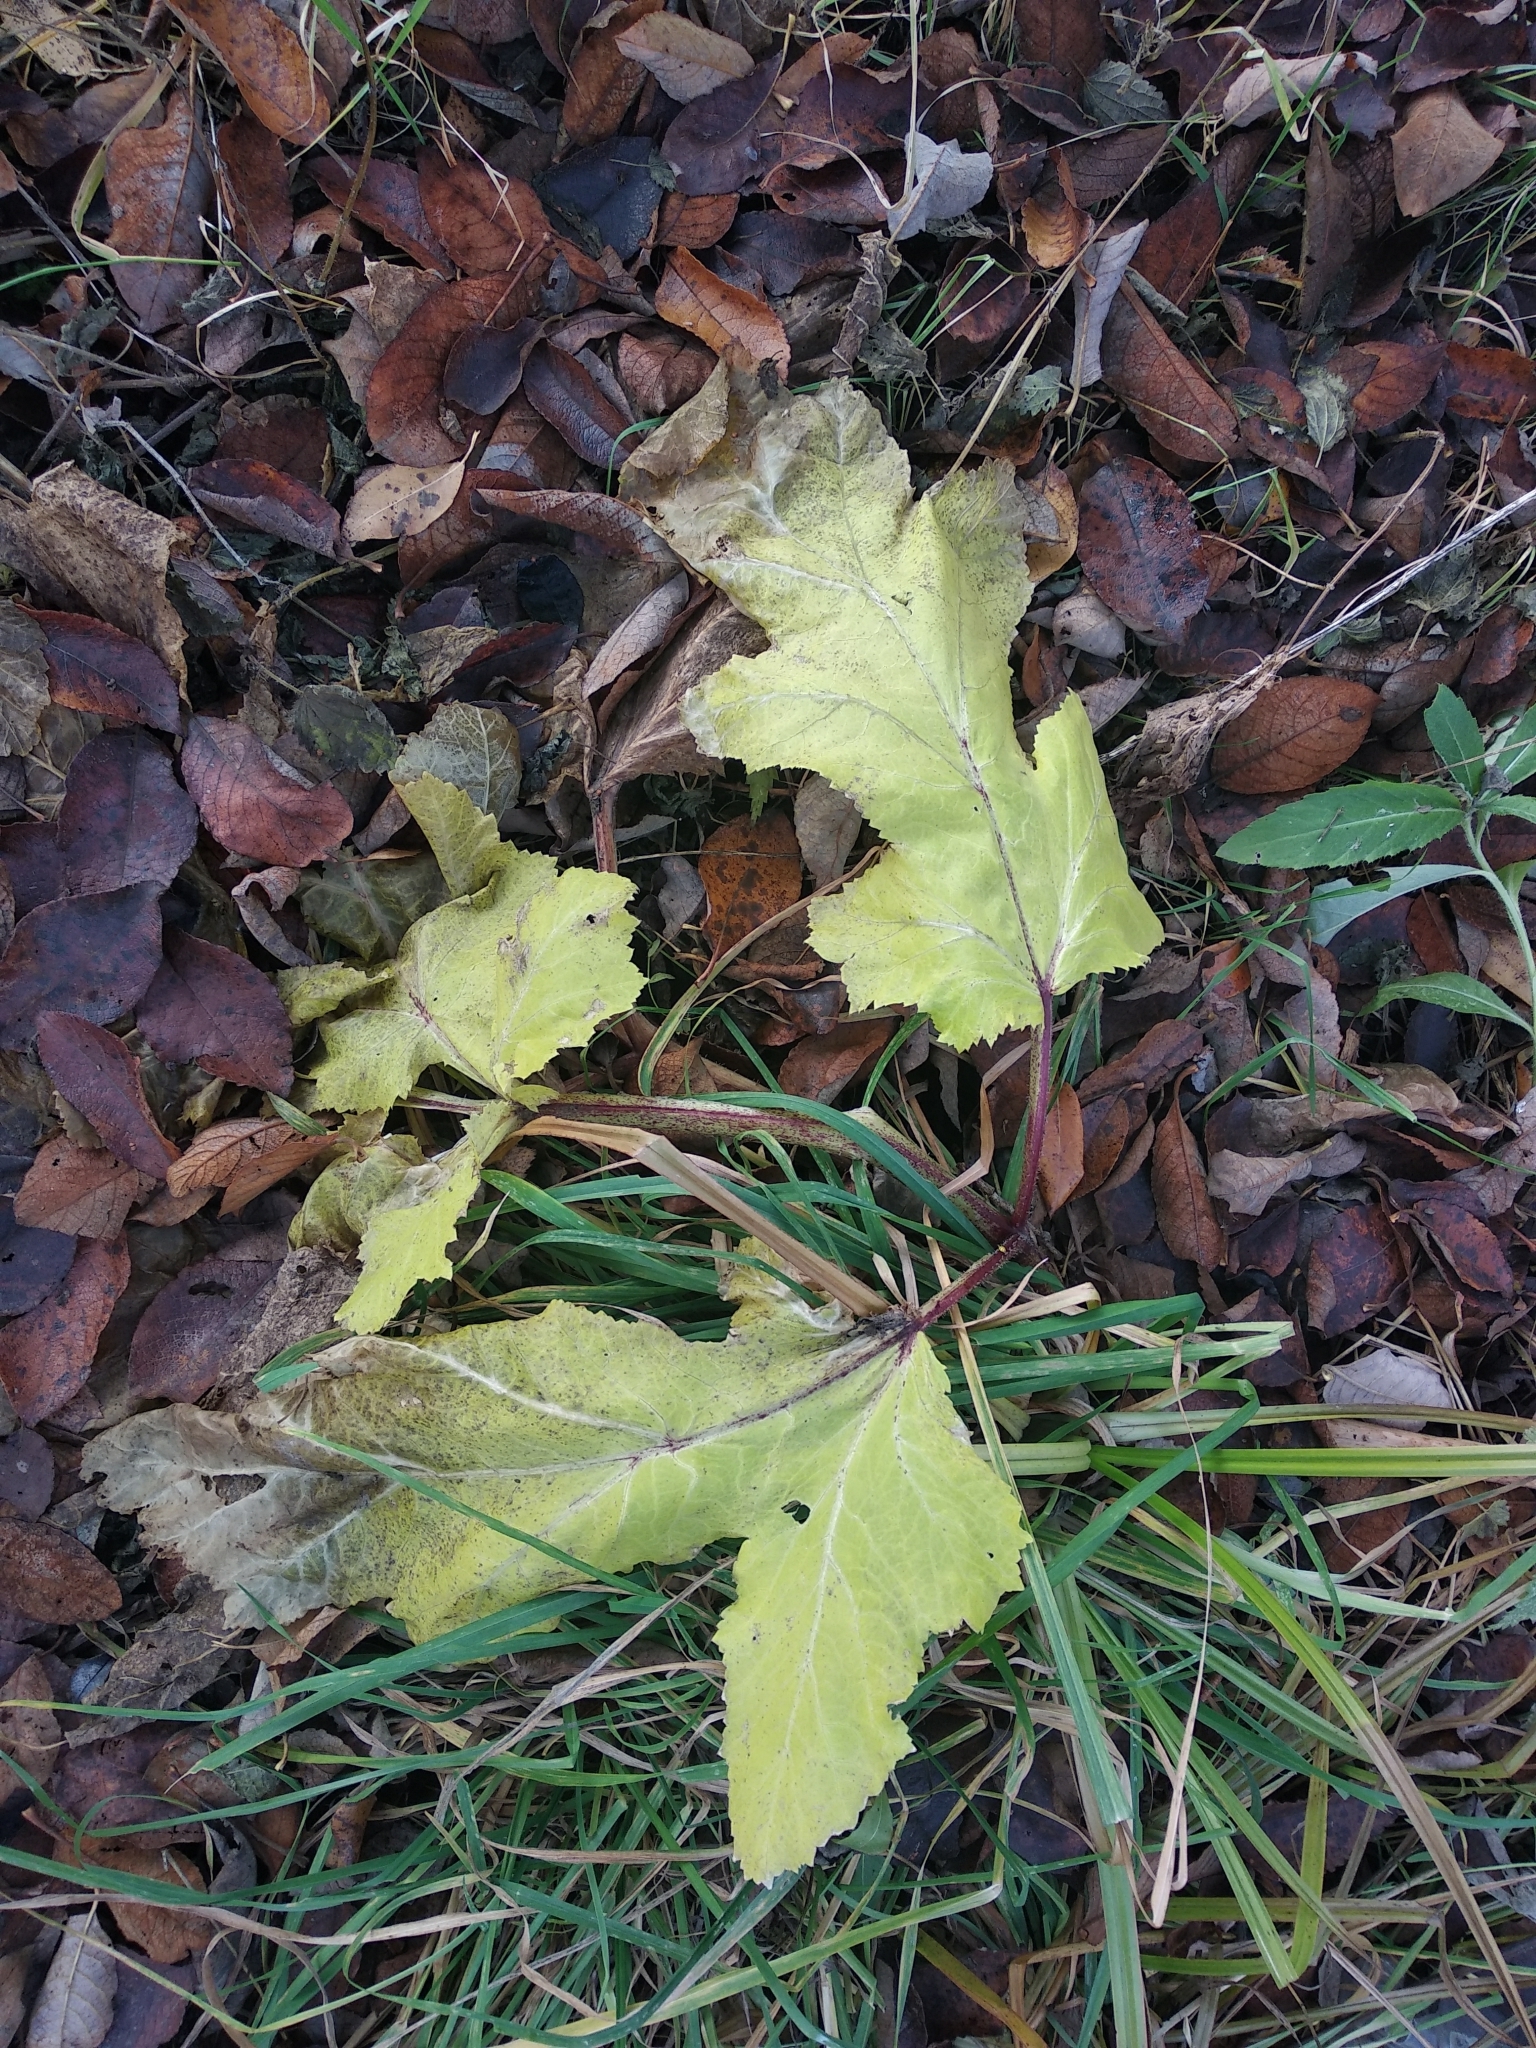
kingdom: Plantae
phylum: Tracheophyta
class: Magnoliopsida
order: Apiales
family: Apiaceae
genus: Heracleum
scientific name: Heracleum sosnowskyi
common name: Sosnowsky's hogweed
